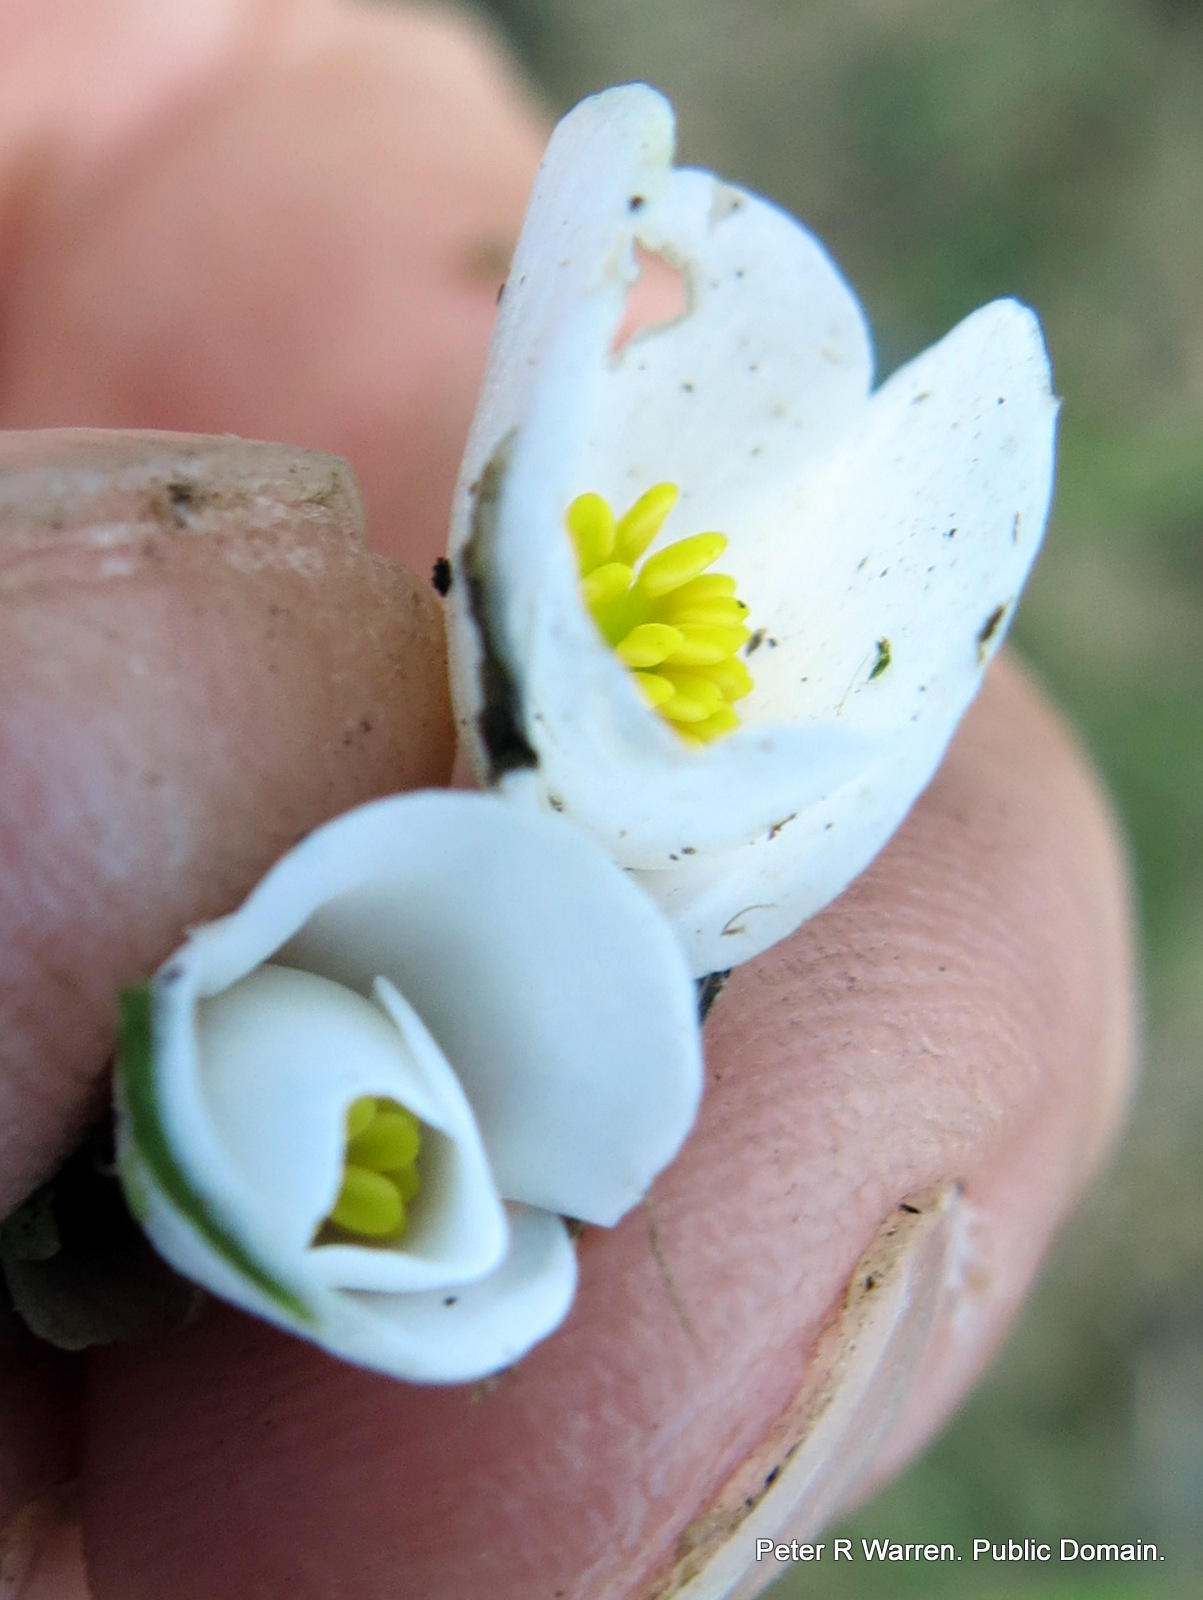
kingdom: Plantae
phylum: Tracheophyta
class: Magnoliopsida
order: Cucurbitales
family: Begoniaceae
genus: Begonia
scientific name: Begonia geranioides
